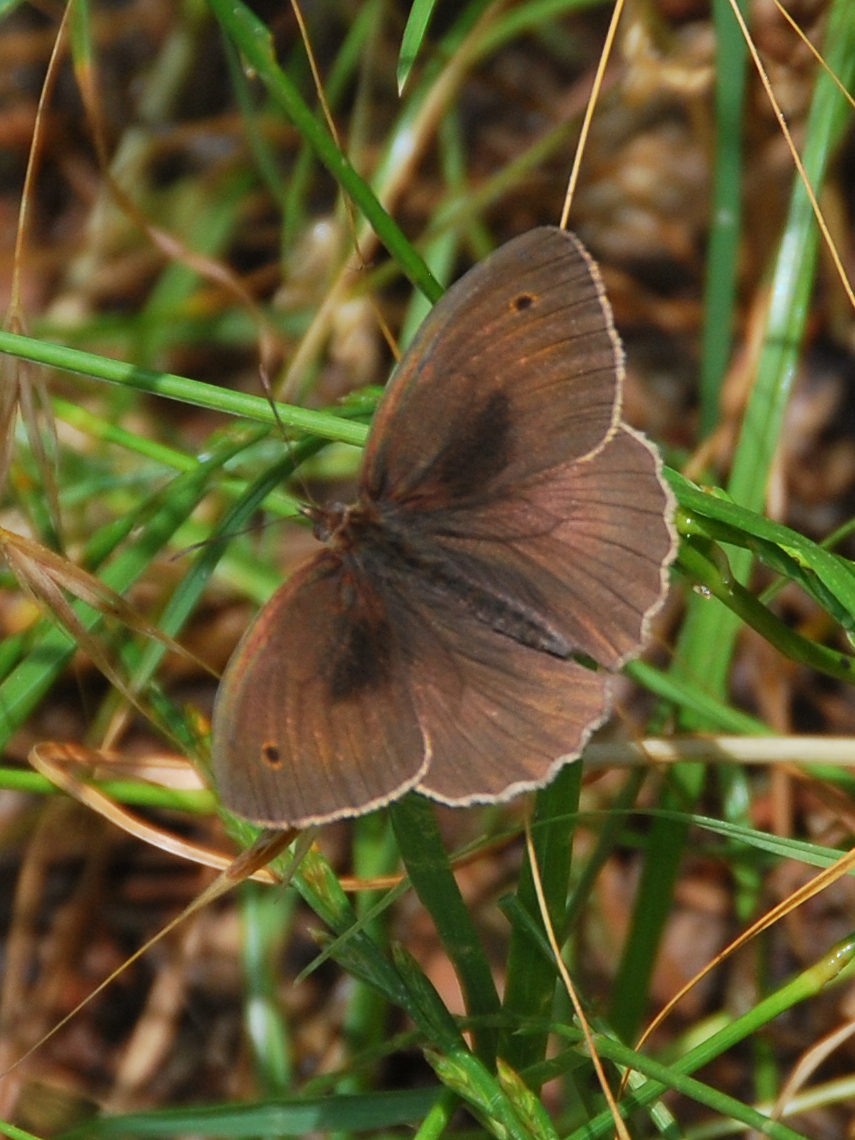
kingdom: Animalia
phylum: Arthropoda
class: Insecta
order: Lepidoptera
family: Nymphalidae
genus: Maniola
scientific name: Maniola jurtina
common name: Meadow brown
